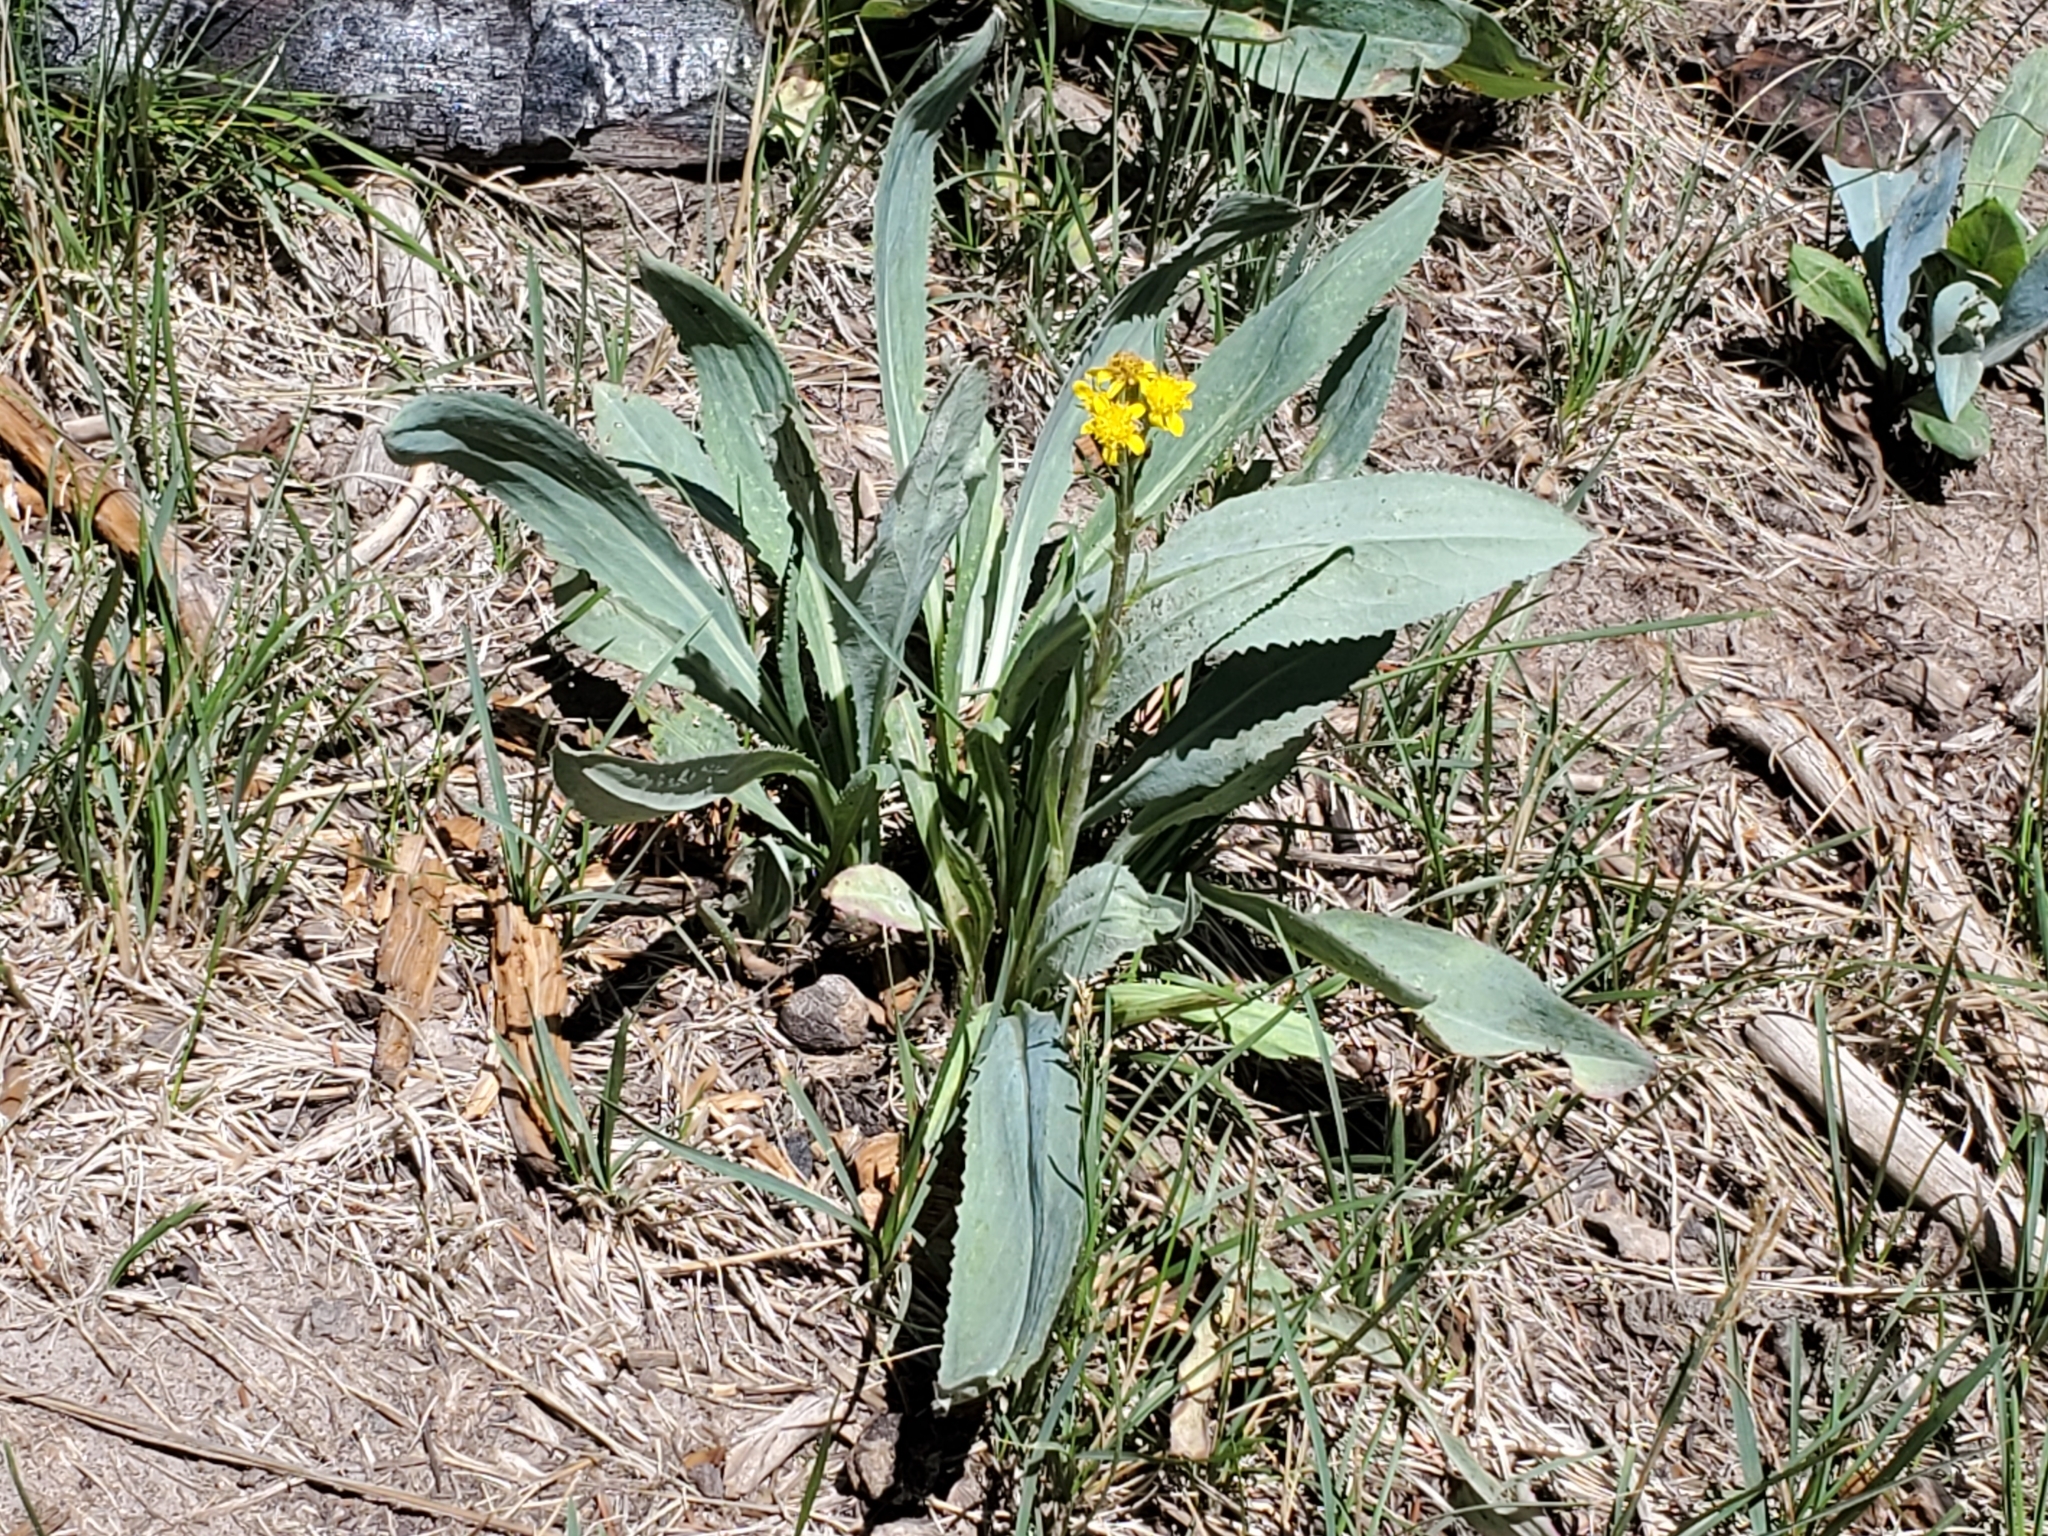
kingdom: Plantae
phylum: Tracheophyta
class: Magnoliopsida
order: Asterales
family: Asteraceae
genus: Senecio
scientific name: Senecio wootonii
